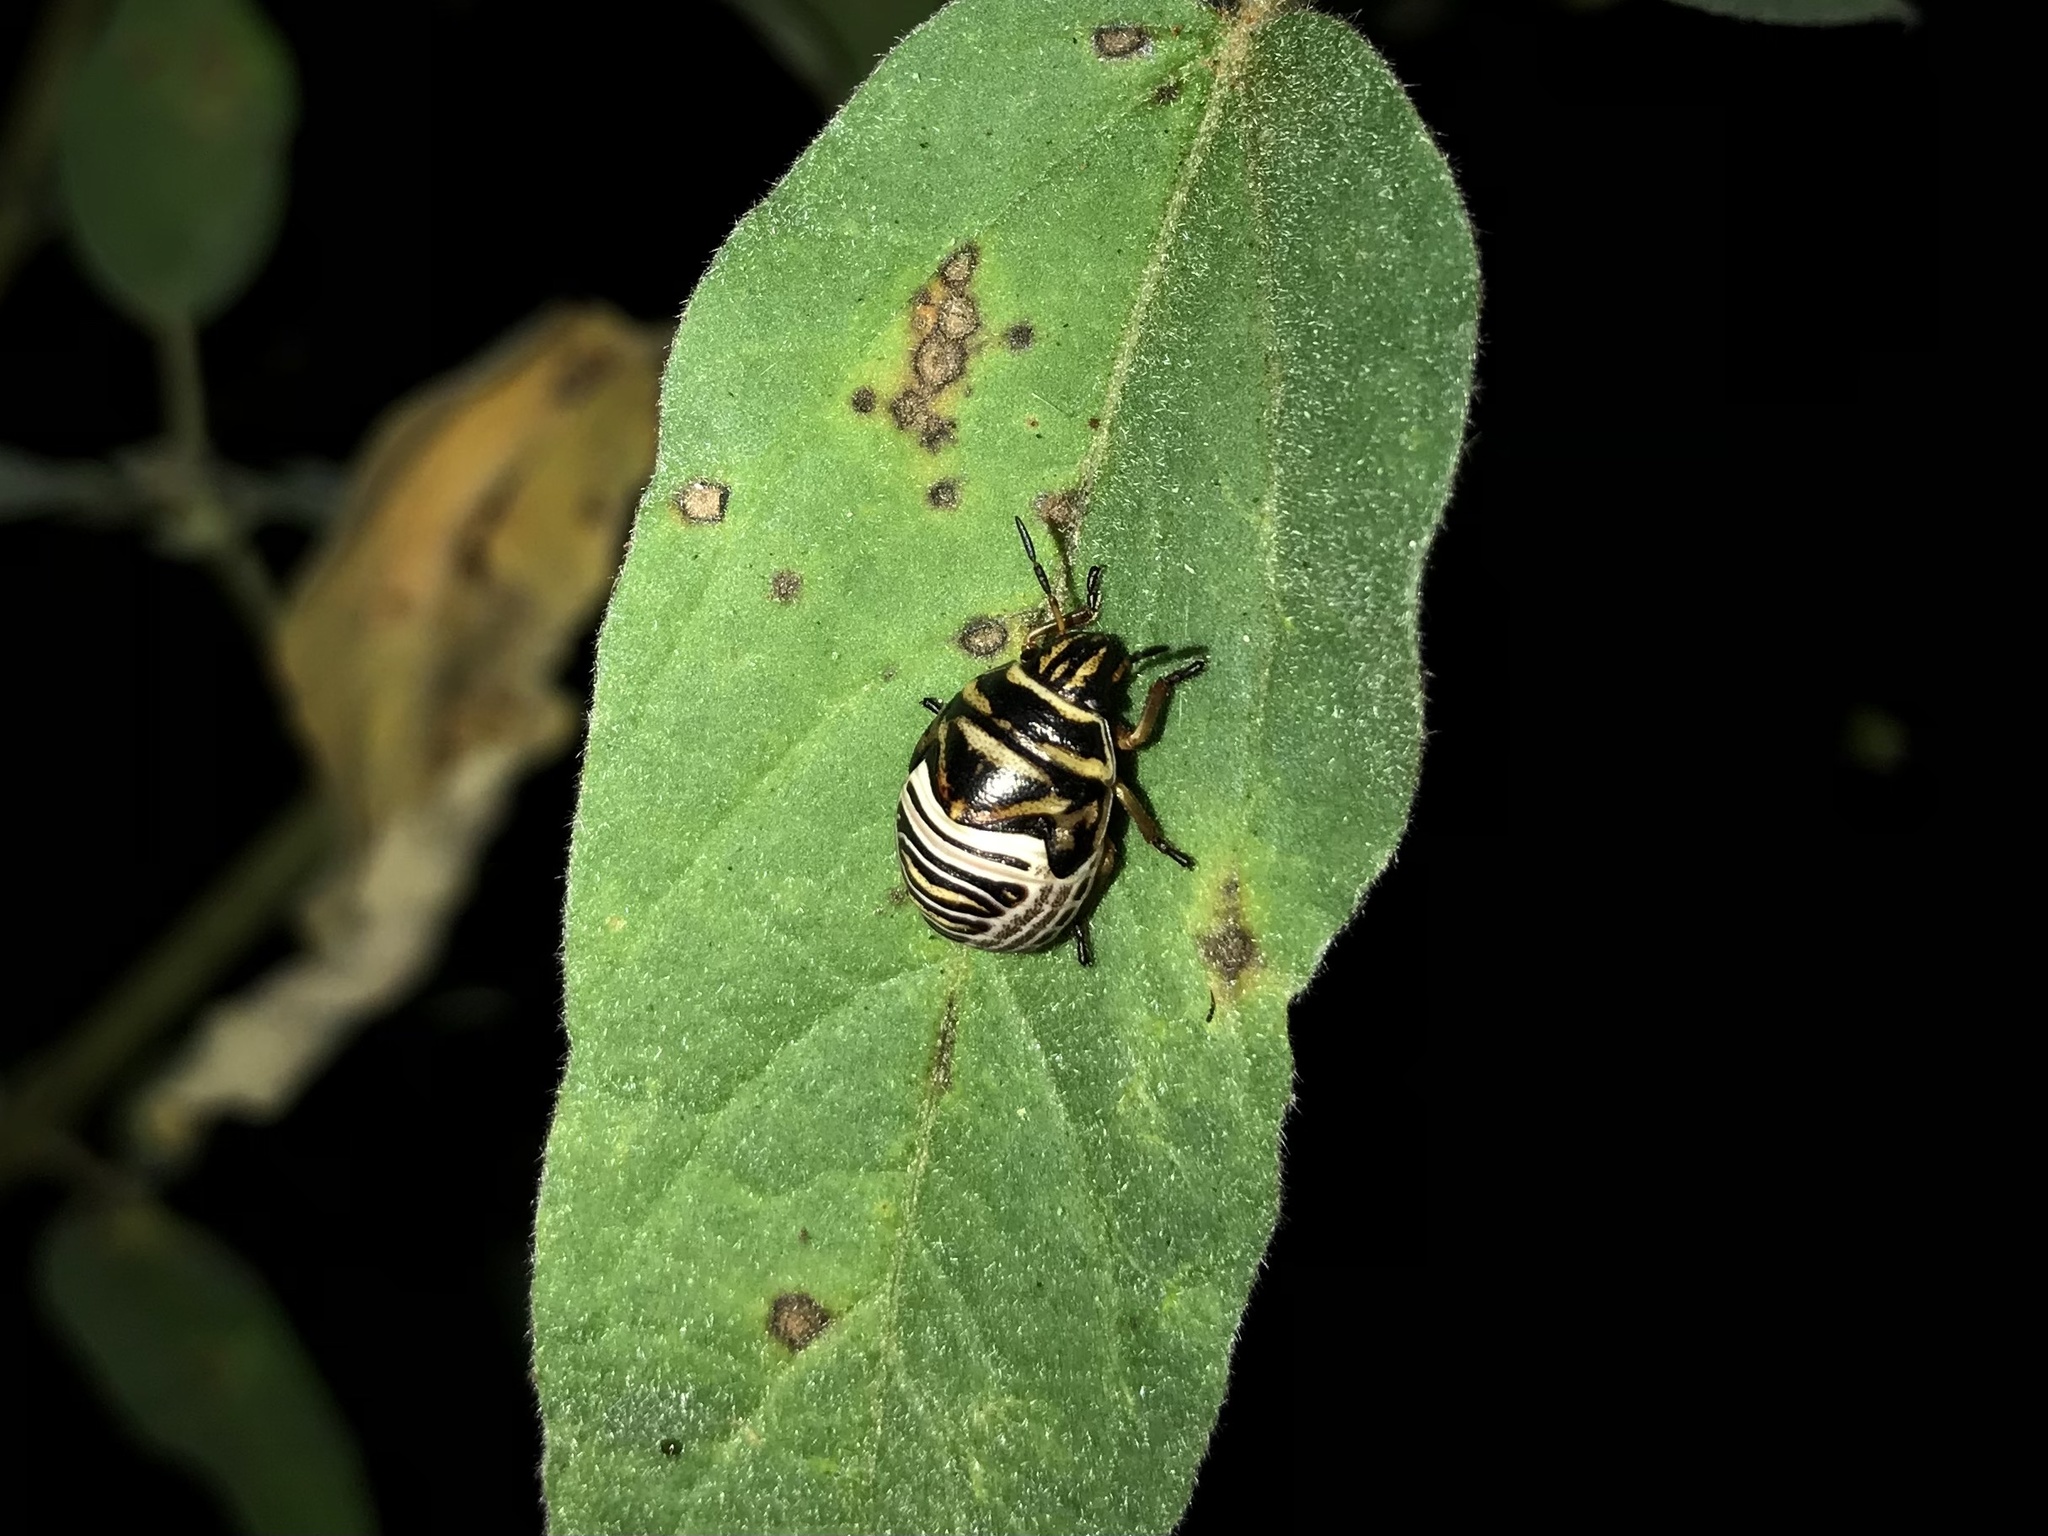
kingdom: Animalia
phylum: Arthropoda
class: Insecta
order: Hemiptera
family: Scutelleridae
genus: Orsilochides
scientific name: Orsilochides guttata
